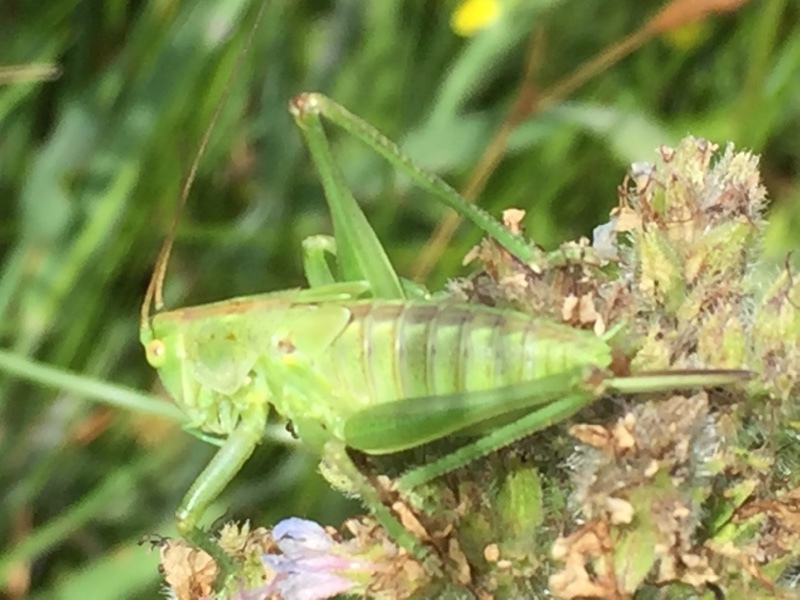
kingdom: Animalia
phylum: Arthropoda
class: Insecta
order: Orthoptera
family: Tettigoniidae
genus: Tettigonia
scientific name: Tettigonia viridissima
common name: Great green bush-cricket
